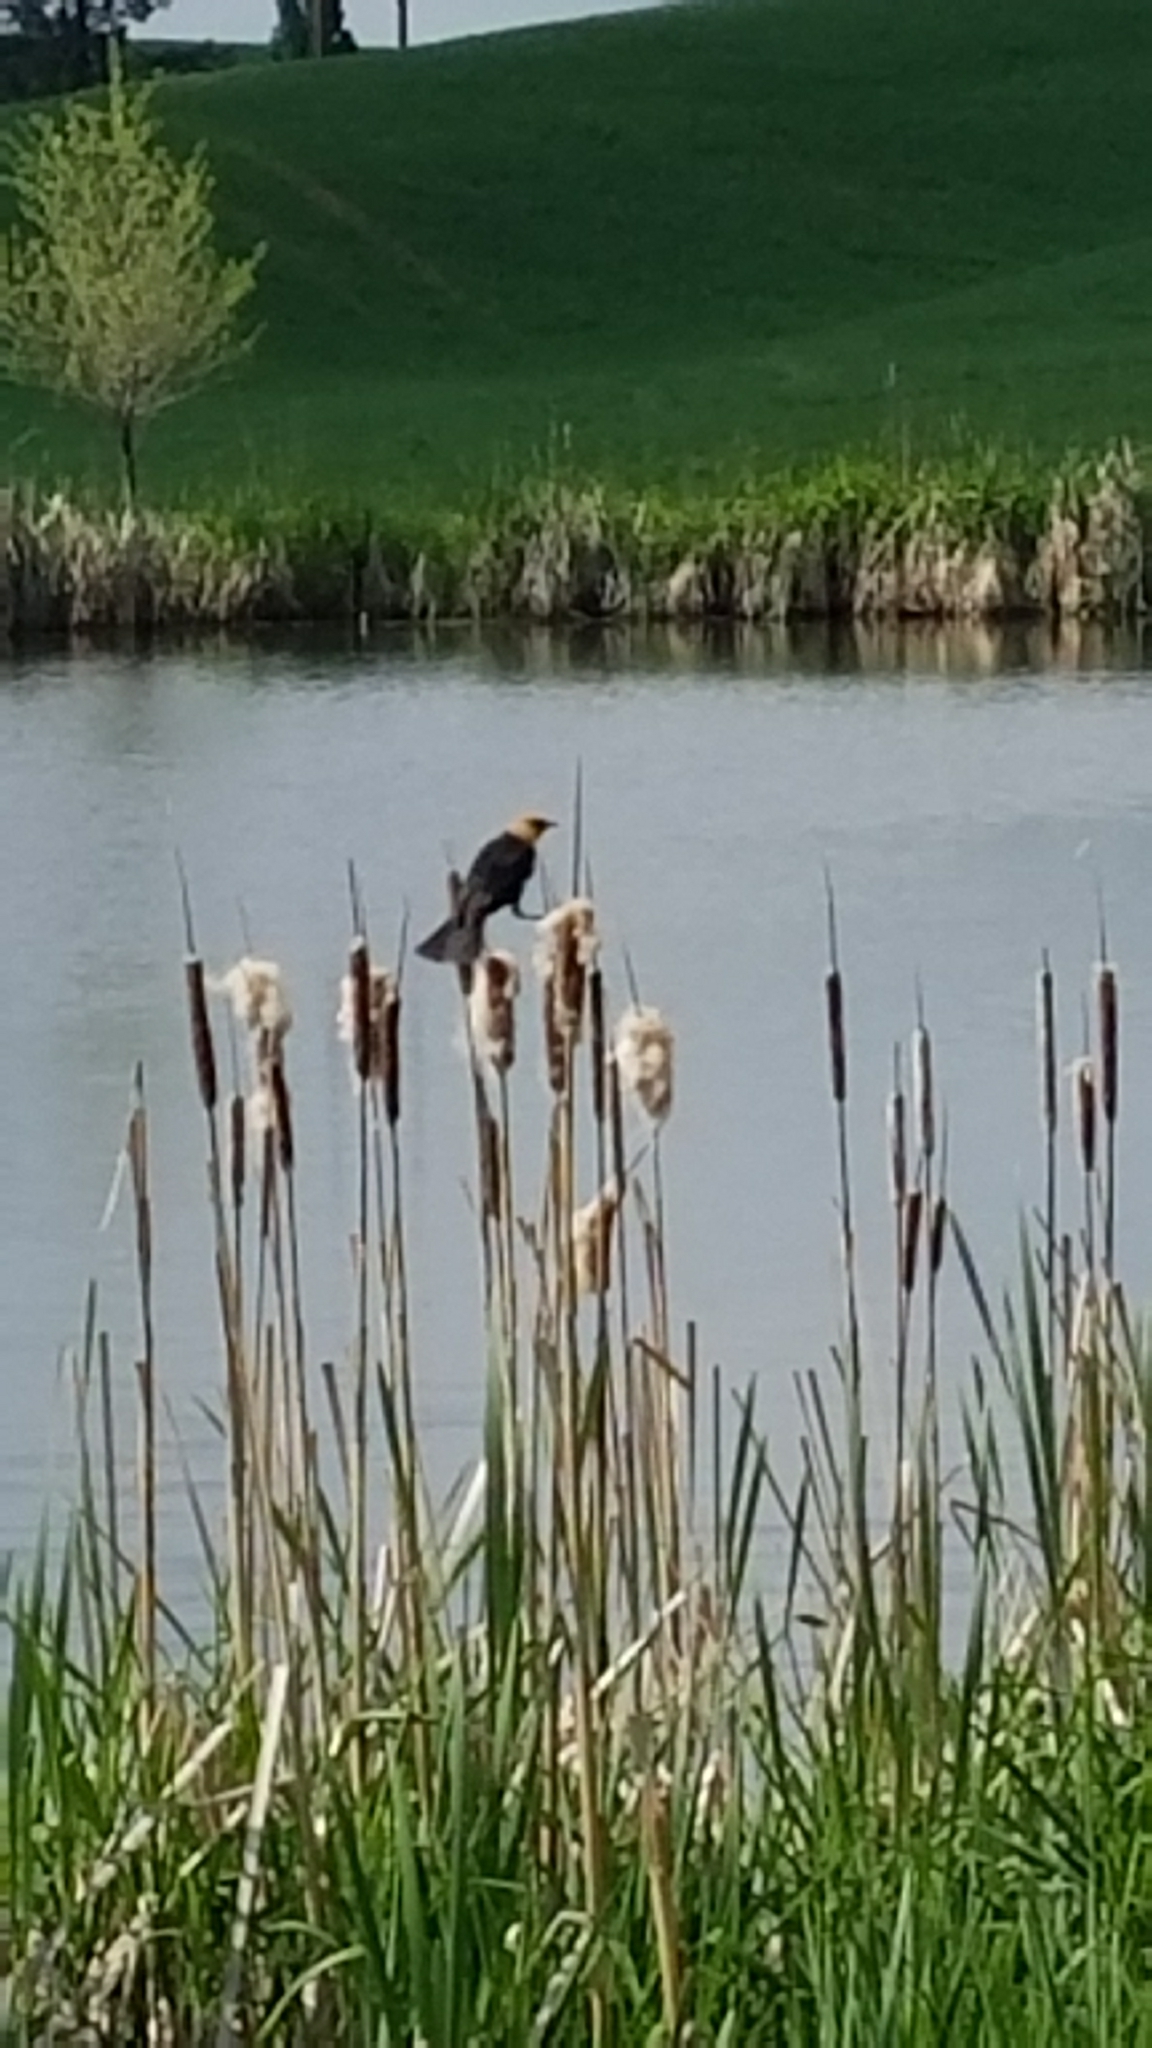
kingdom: Animalia
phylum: Chordata
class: Aves
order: Passeriformes
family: Icteridae
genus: Xanthocephalus
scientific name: Xanthocephalus xanthocephalus
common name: Yellow-headed blackbird
